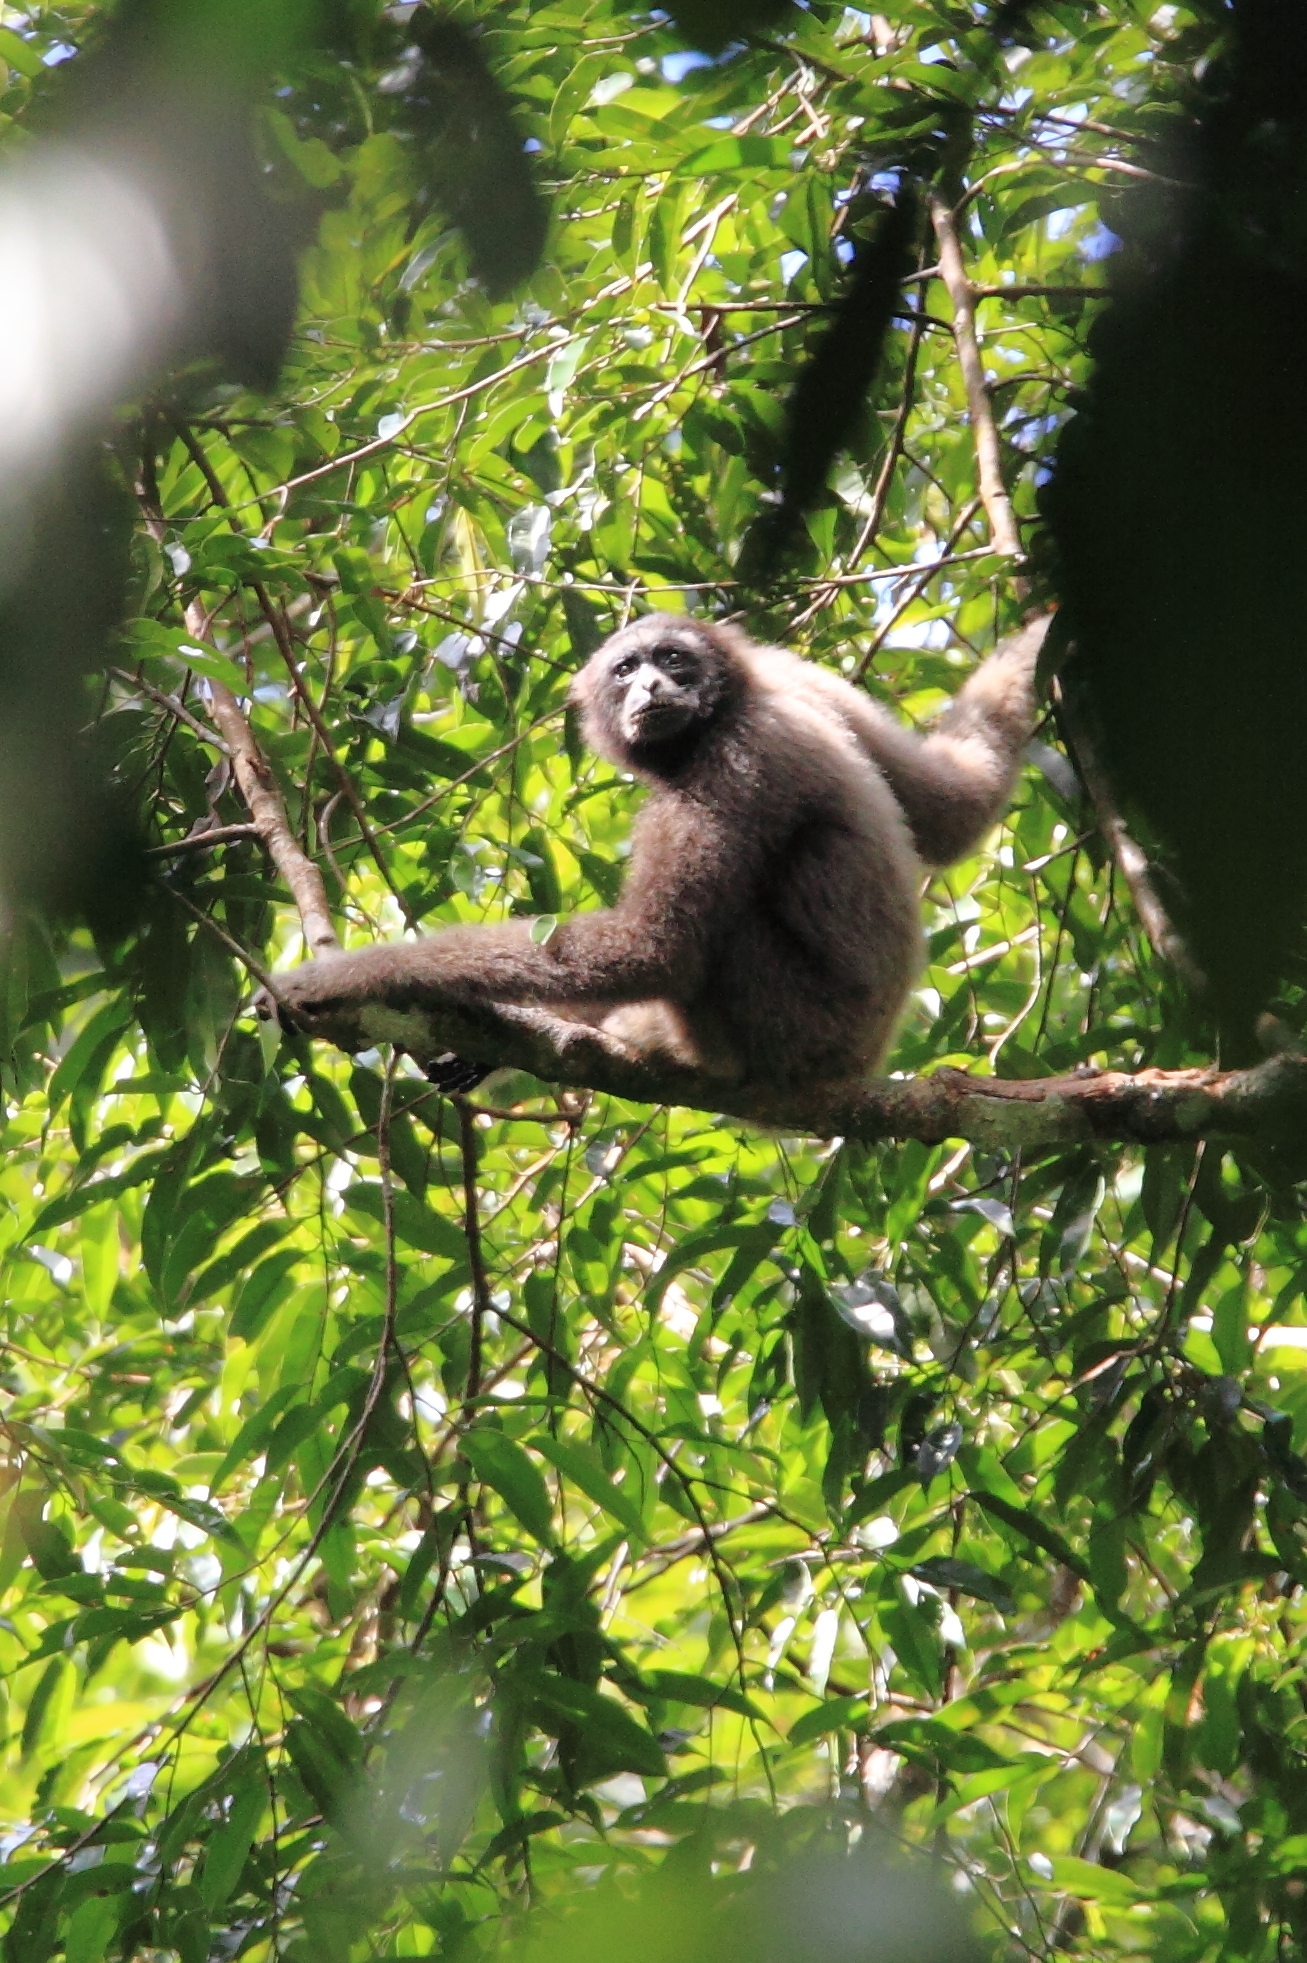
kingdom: Animalia
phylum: Chordata
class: Mammalia
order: Primates
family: Hylobatidae
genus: Hylobates
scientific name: Hylobates funereus
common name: East bornean gray gibbon
